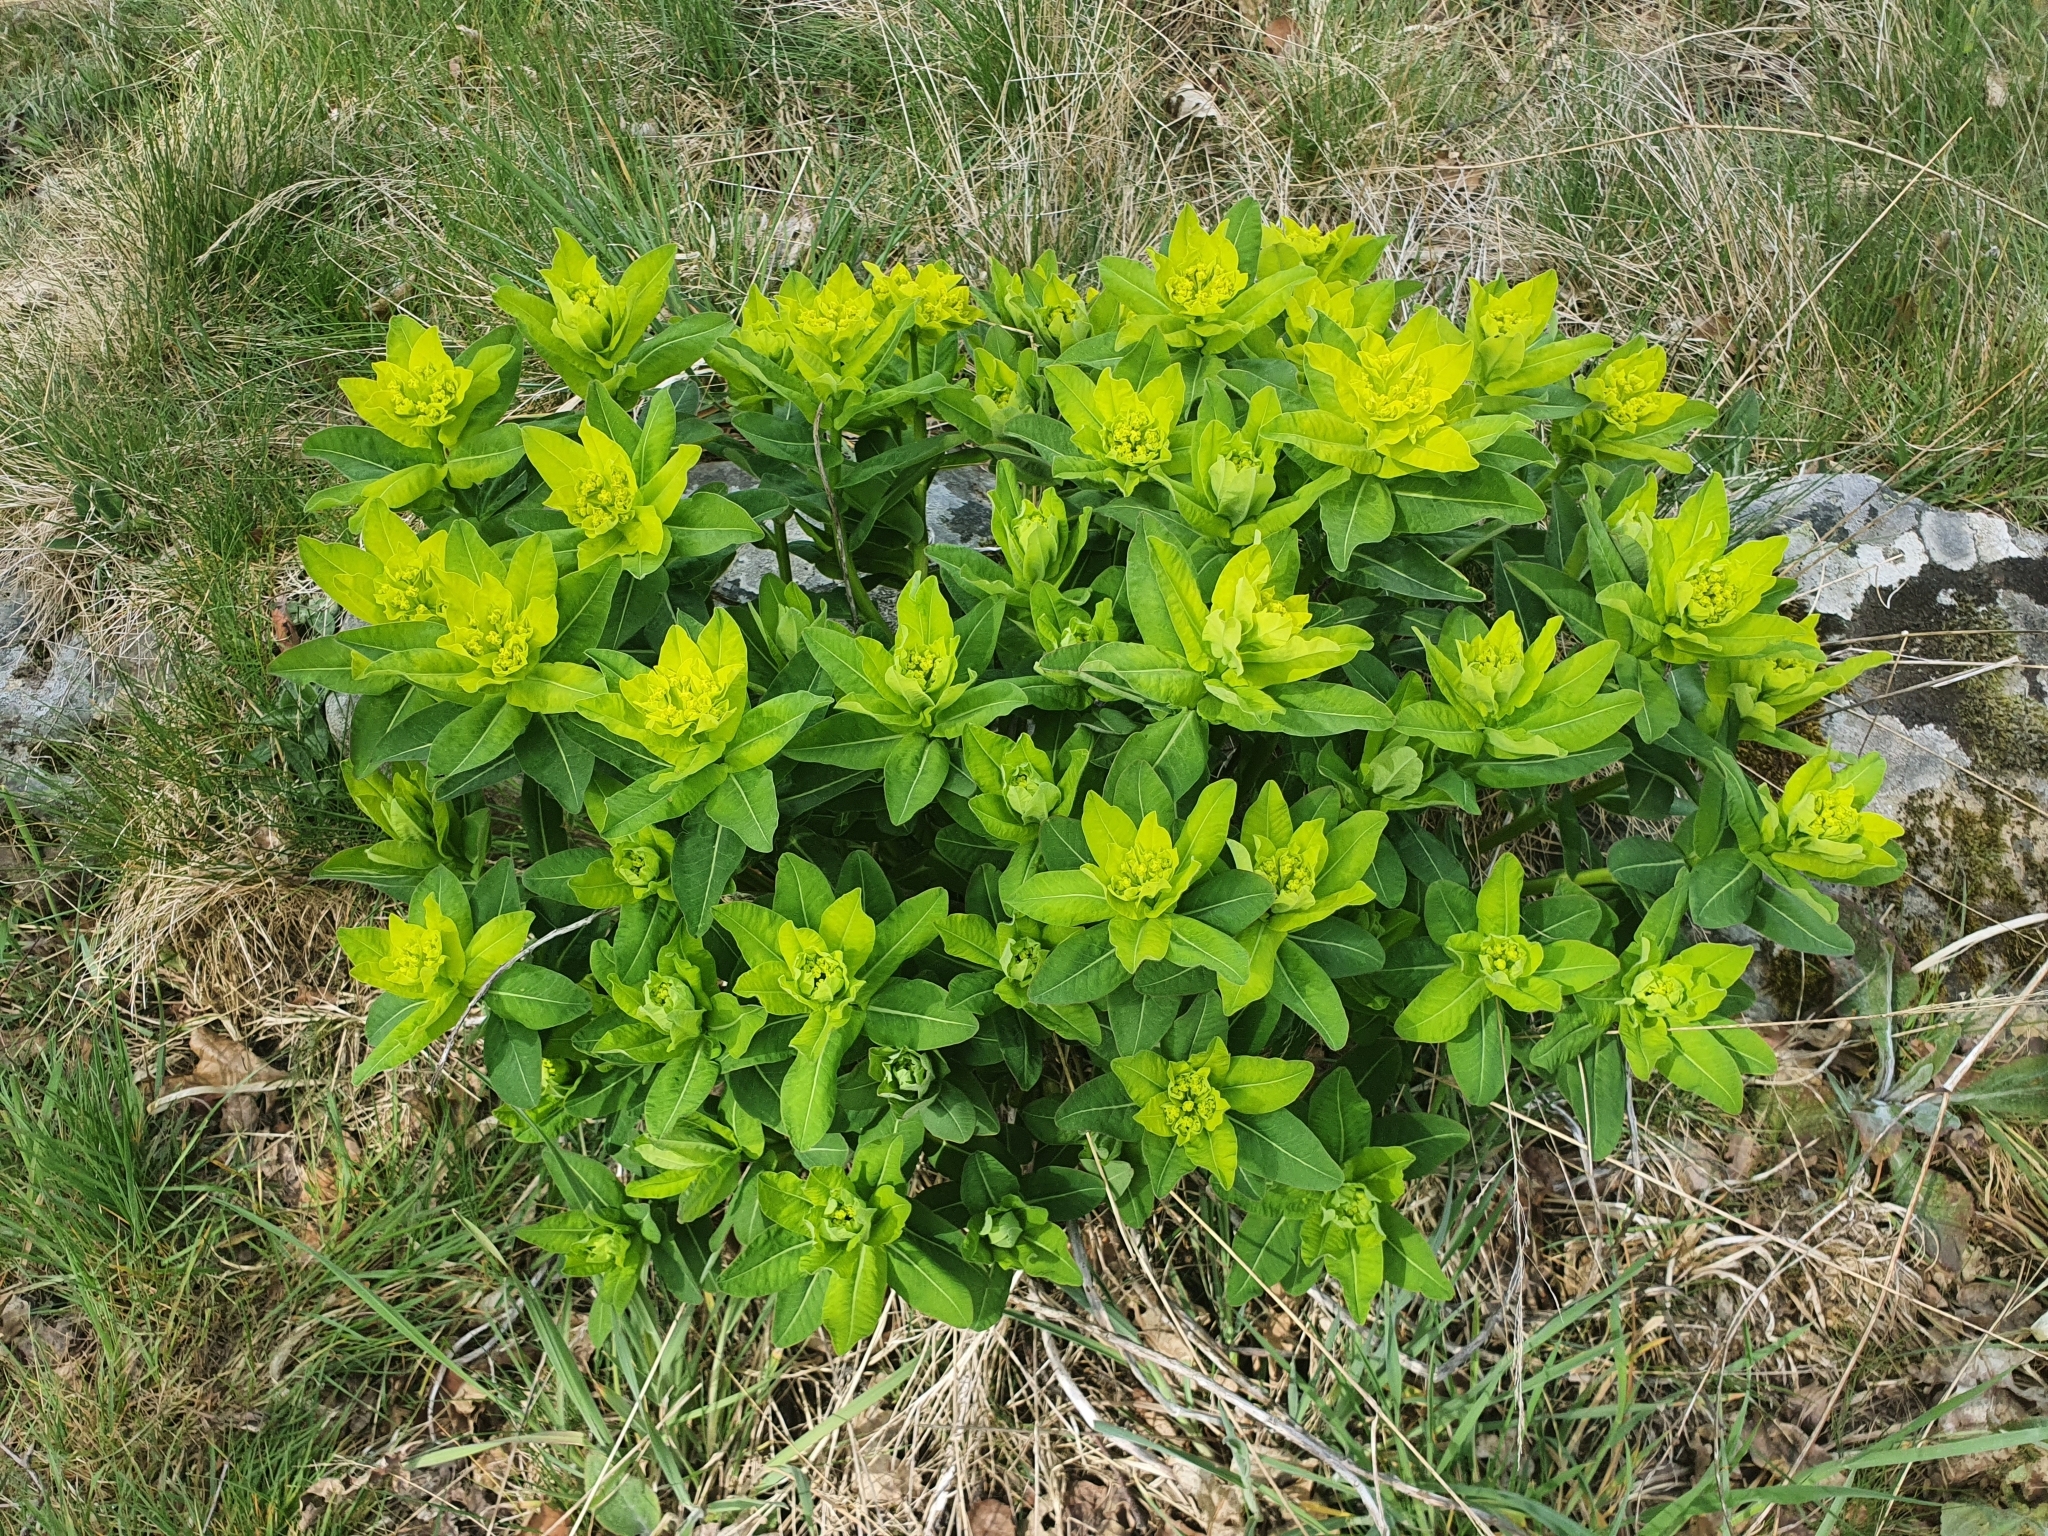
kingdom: Plantae
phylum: Tracheophyta
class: Magnoliopsida
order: Malpighiales
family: Euphorbiaceae
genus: Euphorbia
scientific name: Euphorbia hyberna
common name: Irish spurge
